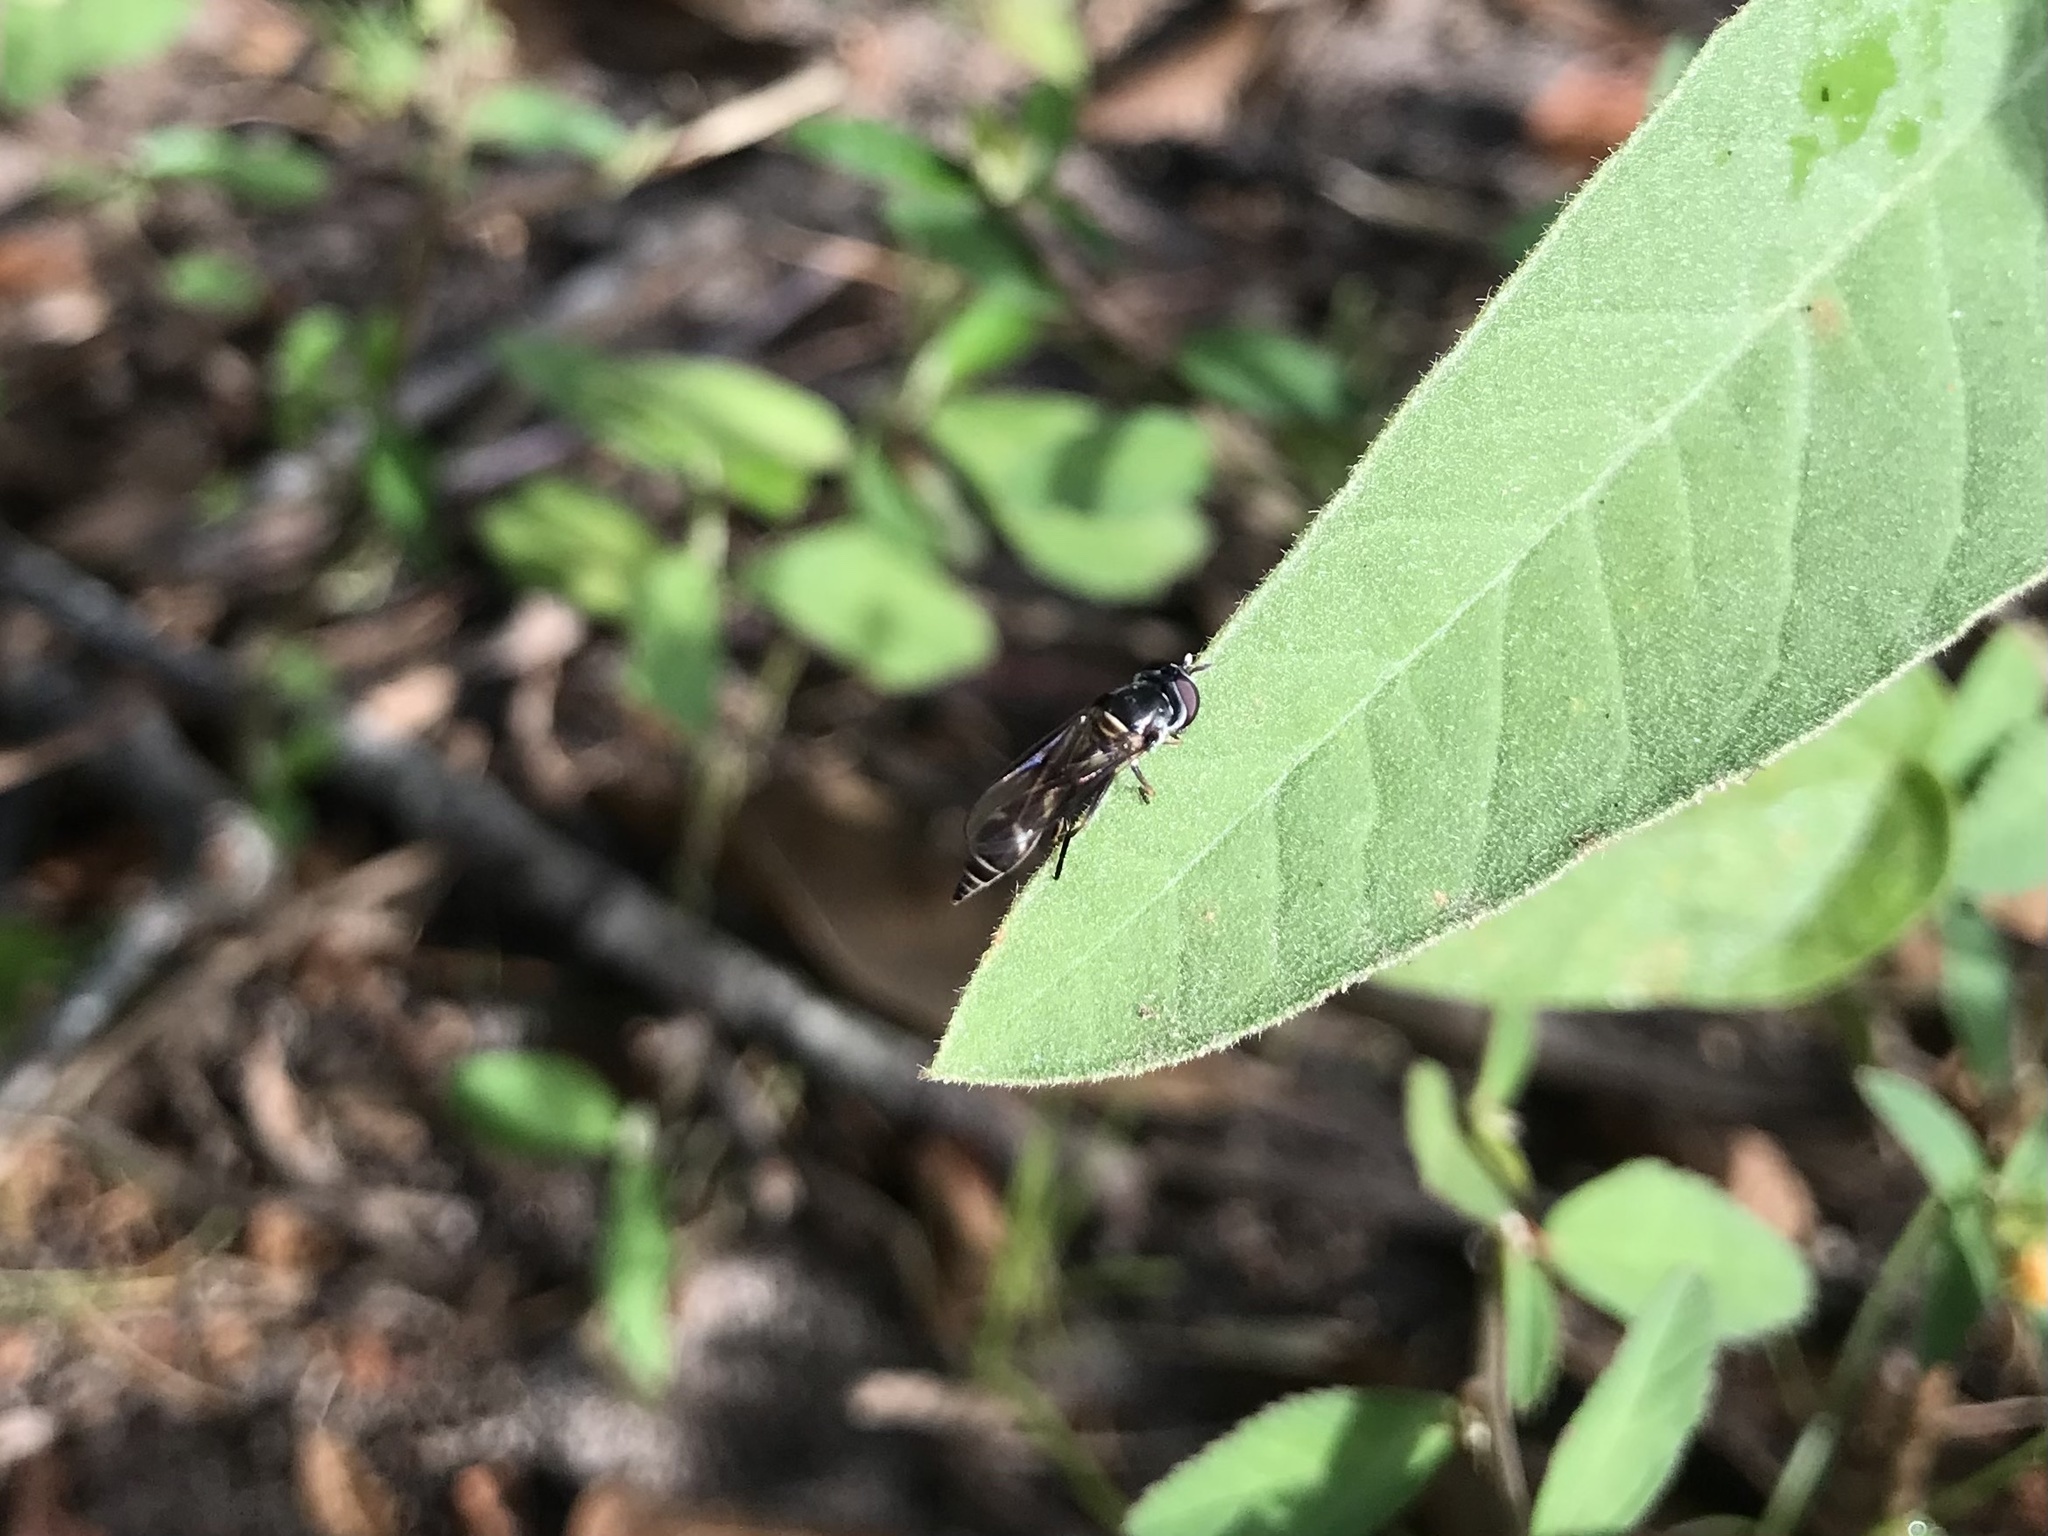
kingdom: Animalia
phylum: Arthropoda
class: Insecta
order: Diptera
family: Syrphidae
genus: Dioprosopa
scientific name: Dioprosopa clavatus
